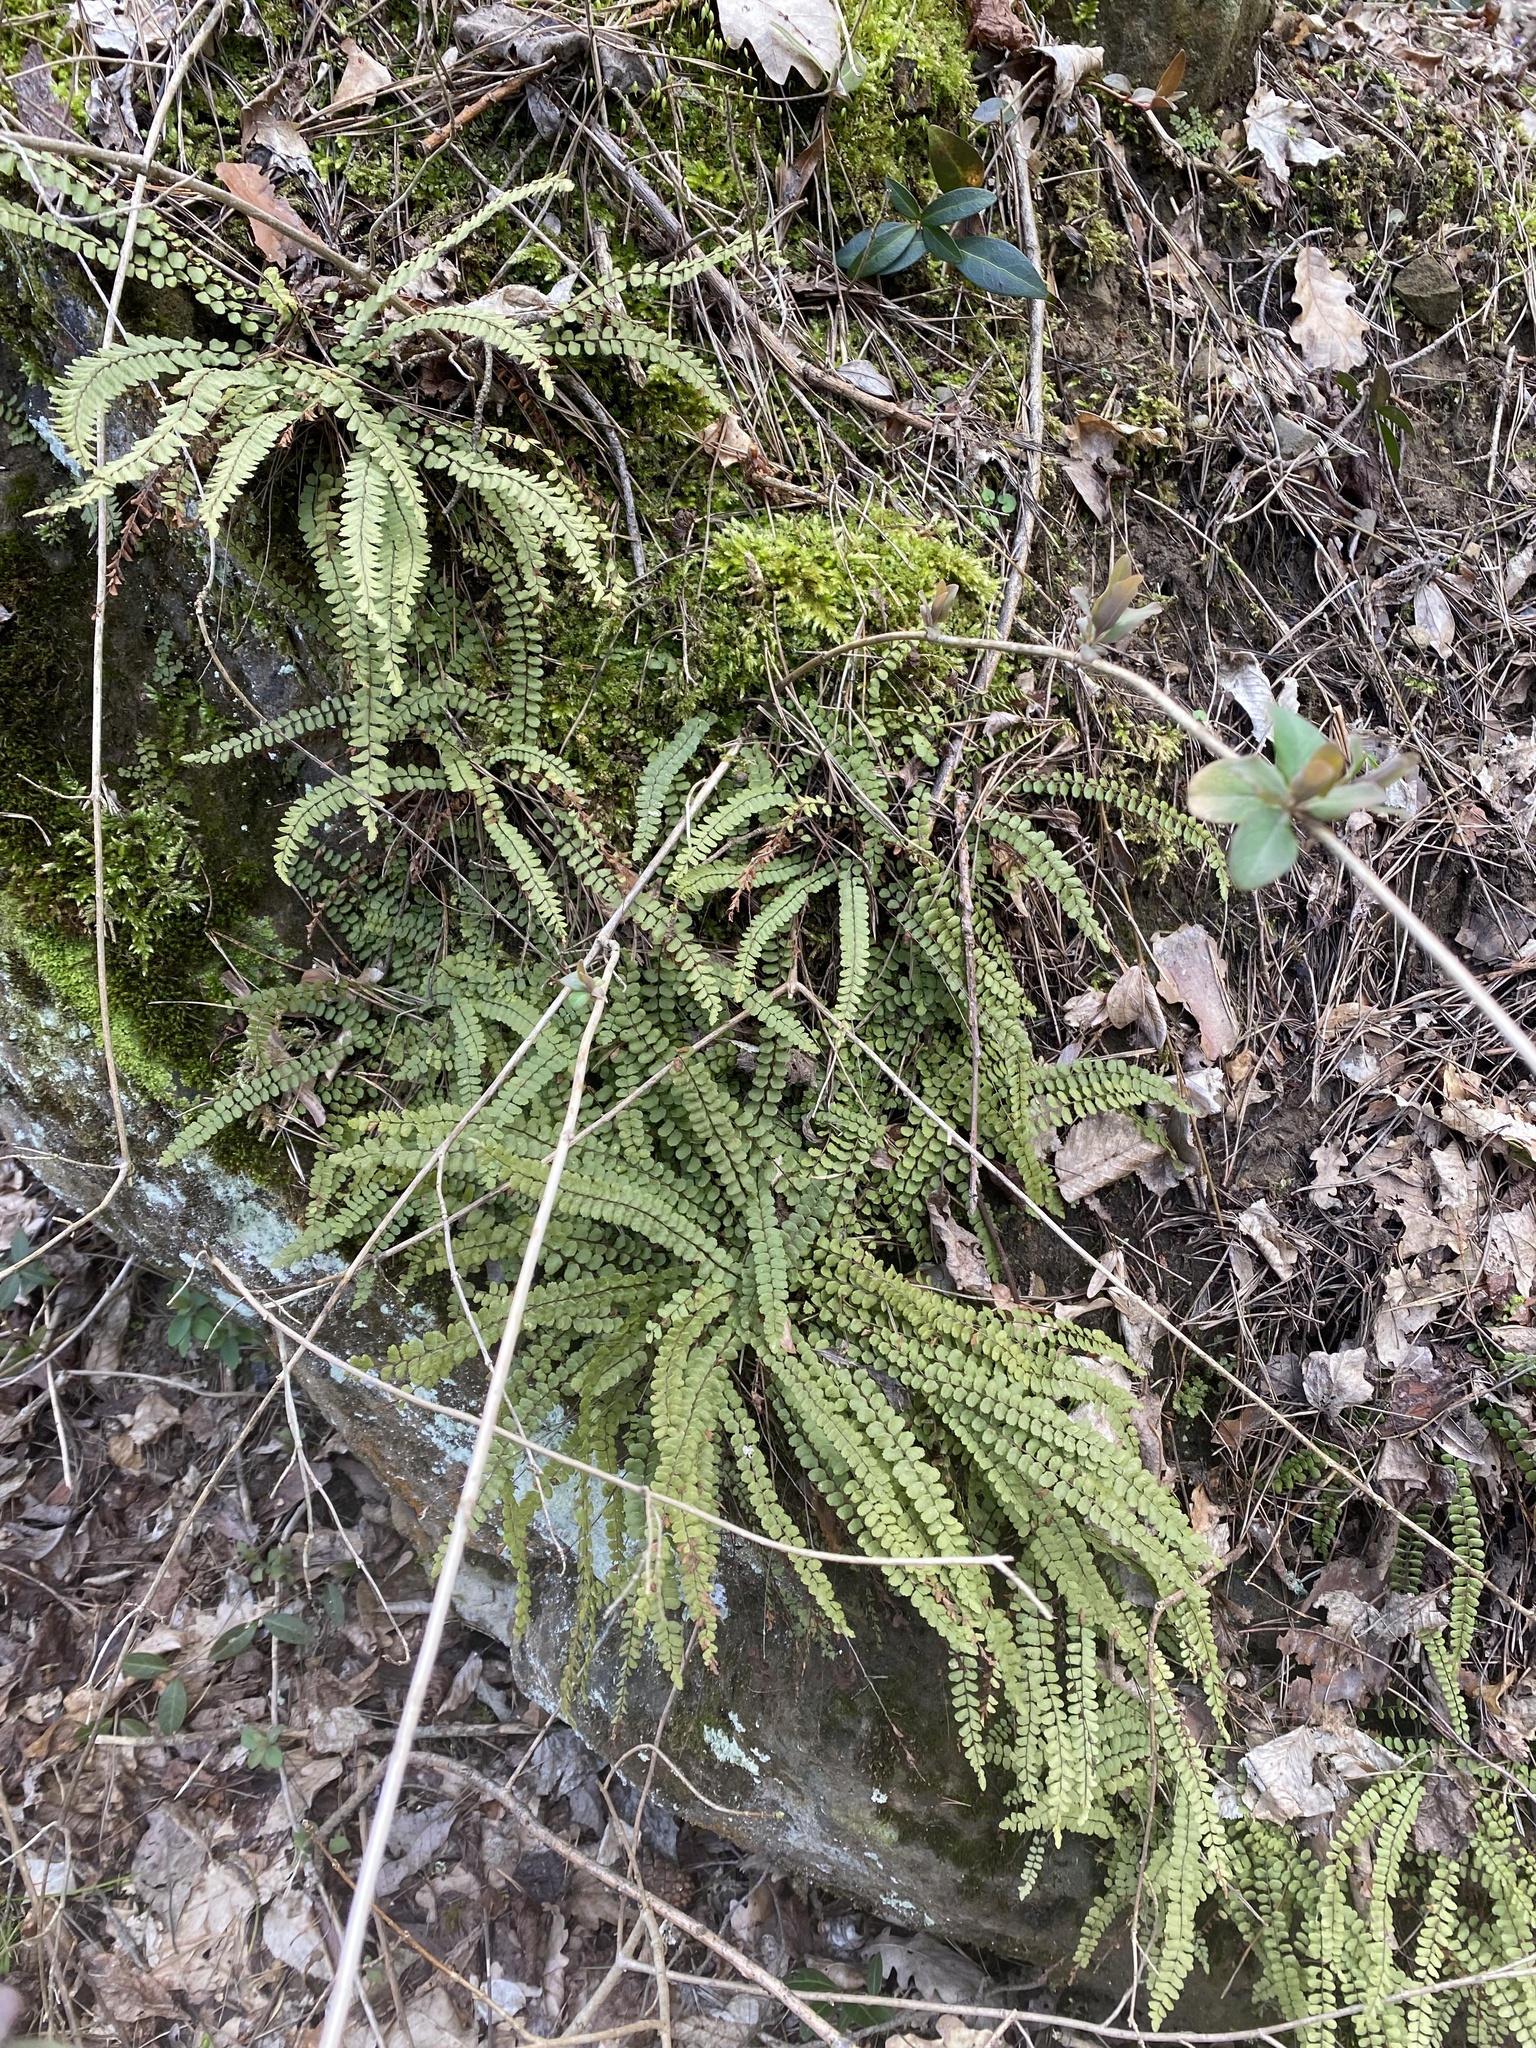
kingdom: Plantae
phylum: Tracheophyta
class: Polypodiopsida
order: Polypodiales
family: Aspleniaceae
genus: Asplenium
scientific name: Asplenium trichomanes
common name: Maidenhair spleenwort
